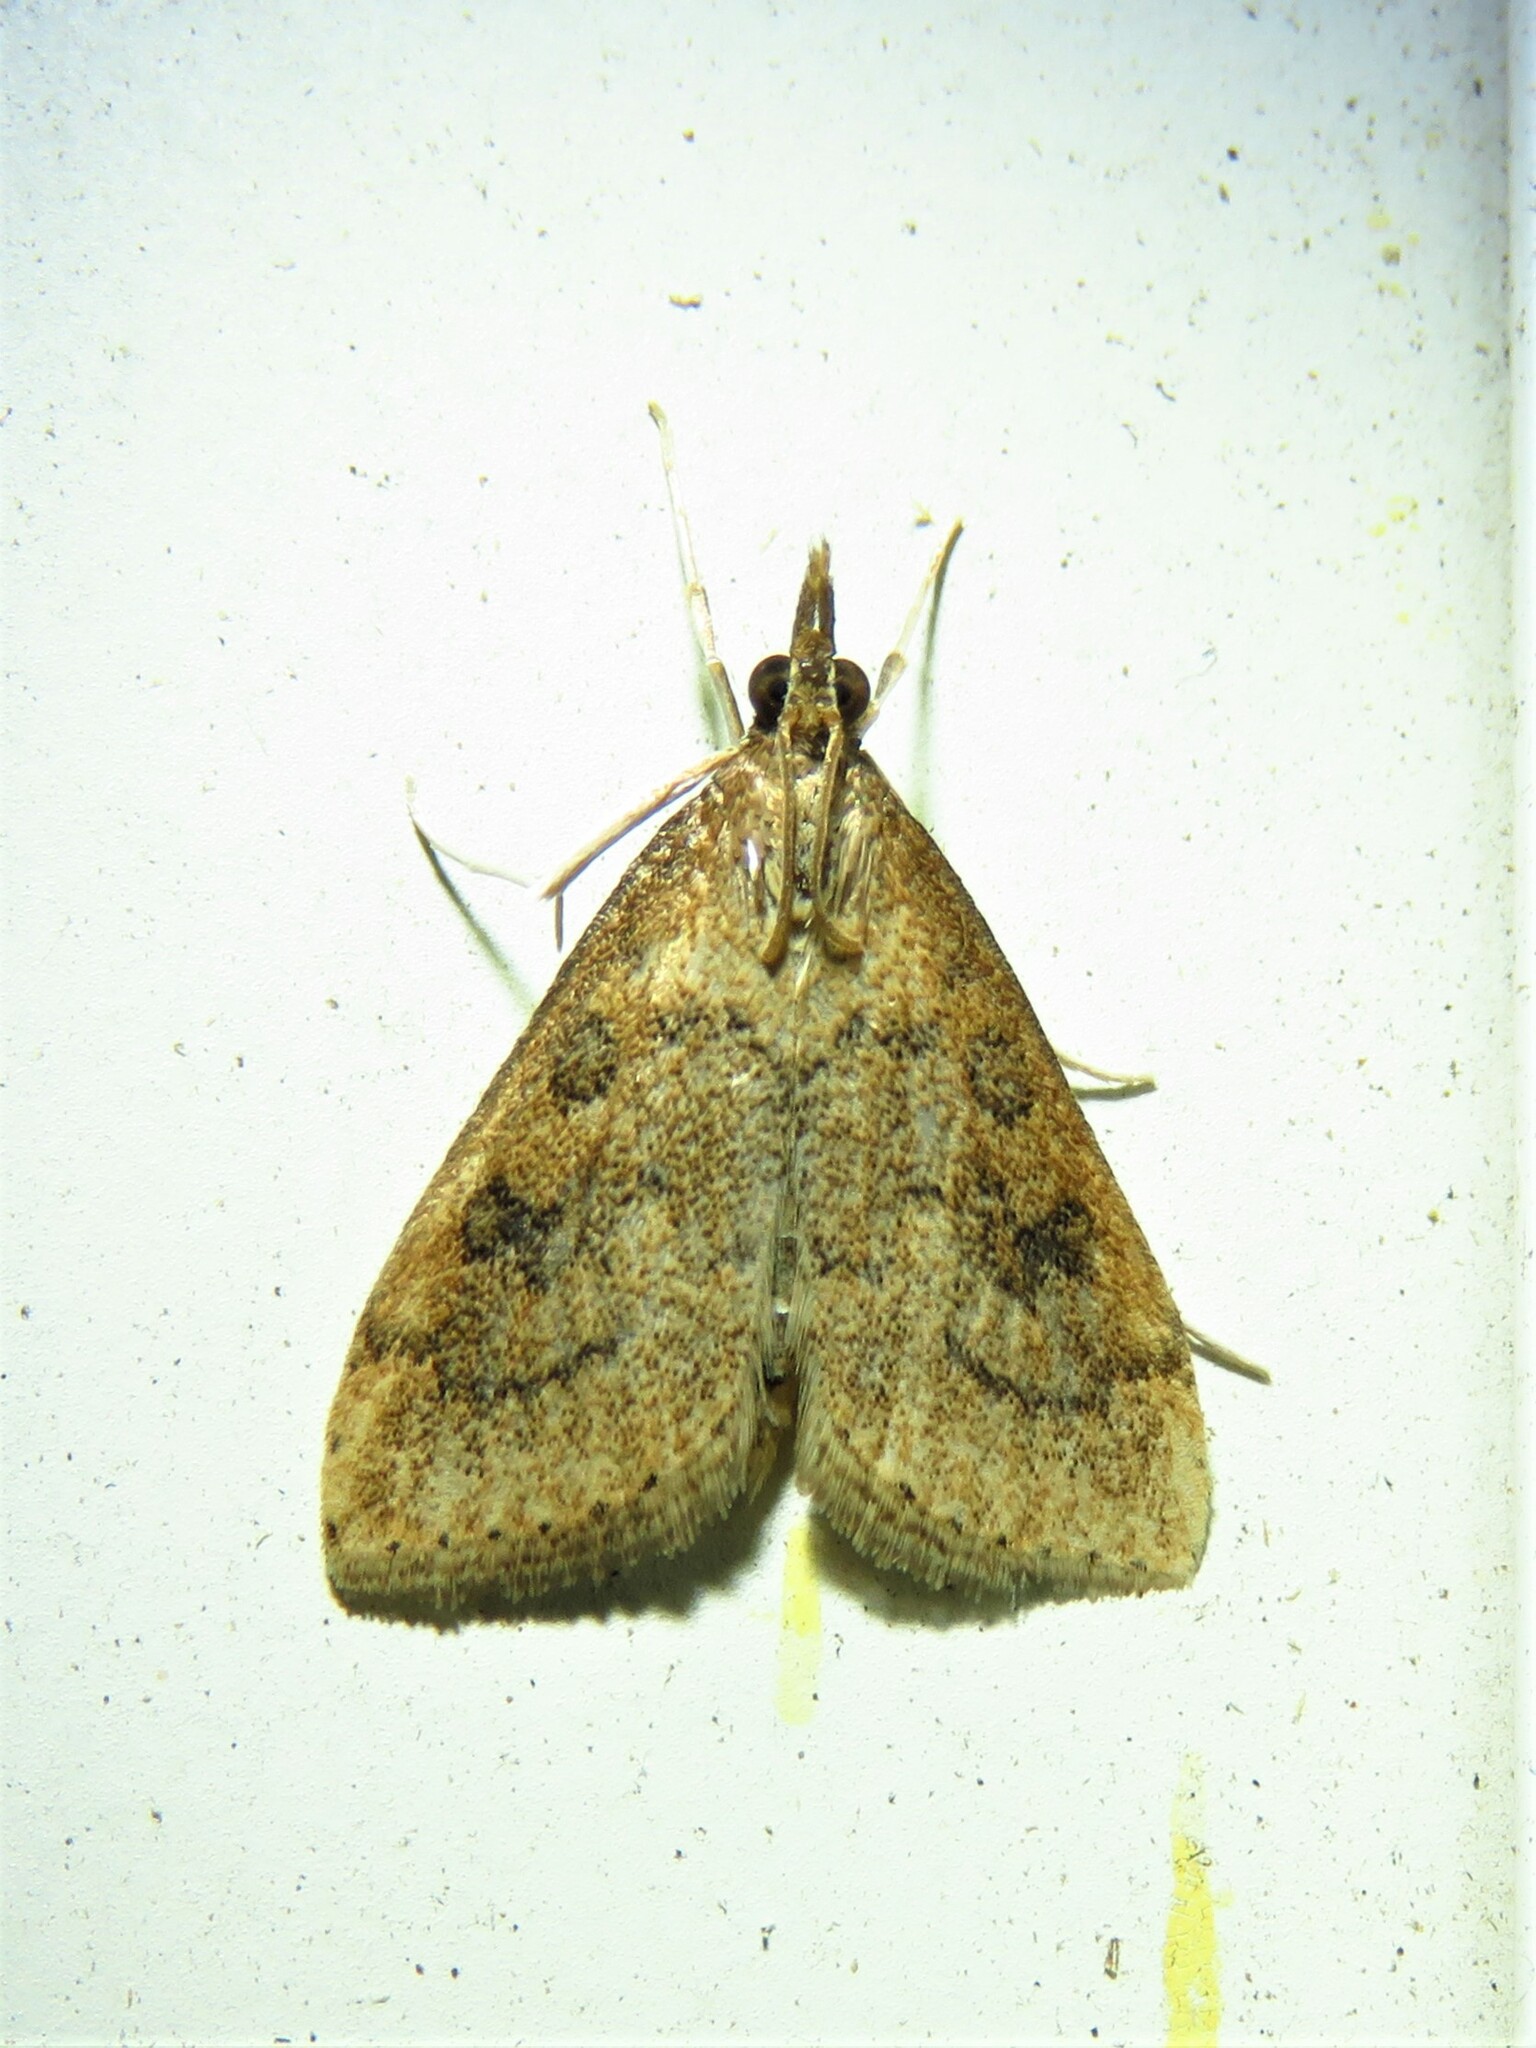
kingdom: Animalia
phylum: Arthropoda
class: Insecta
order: Lepidoptera
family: Crambidae
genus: Udea
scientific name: Udea rubigalis
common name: Celery leaftier moth
